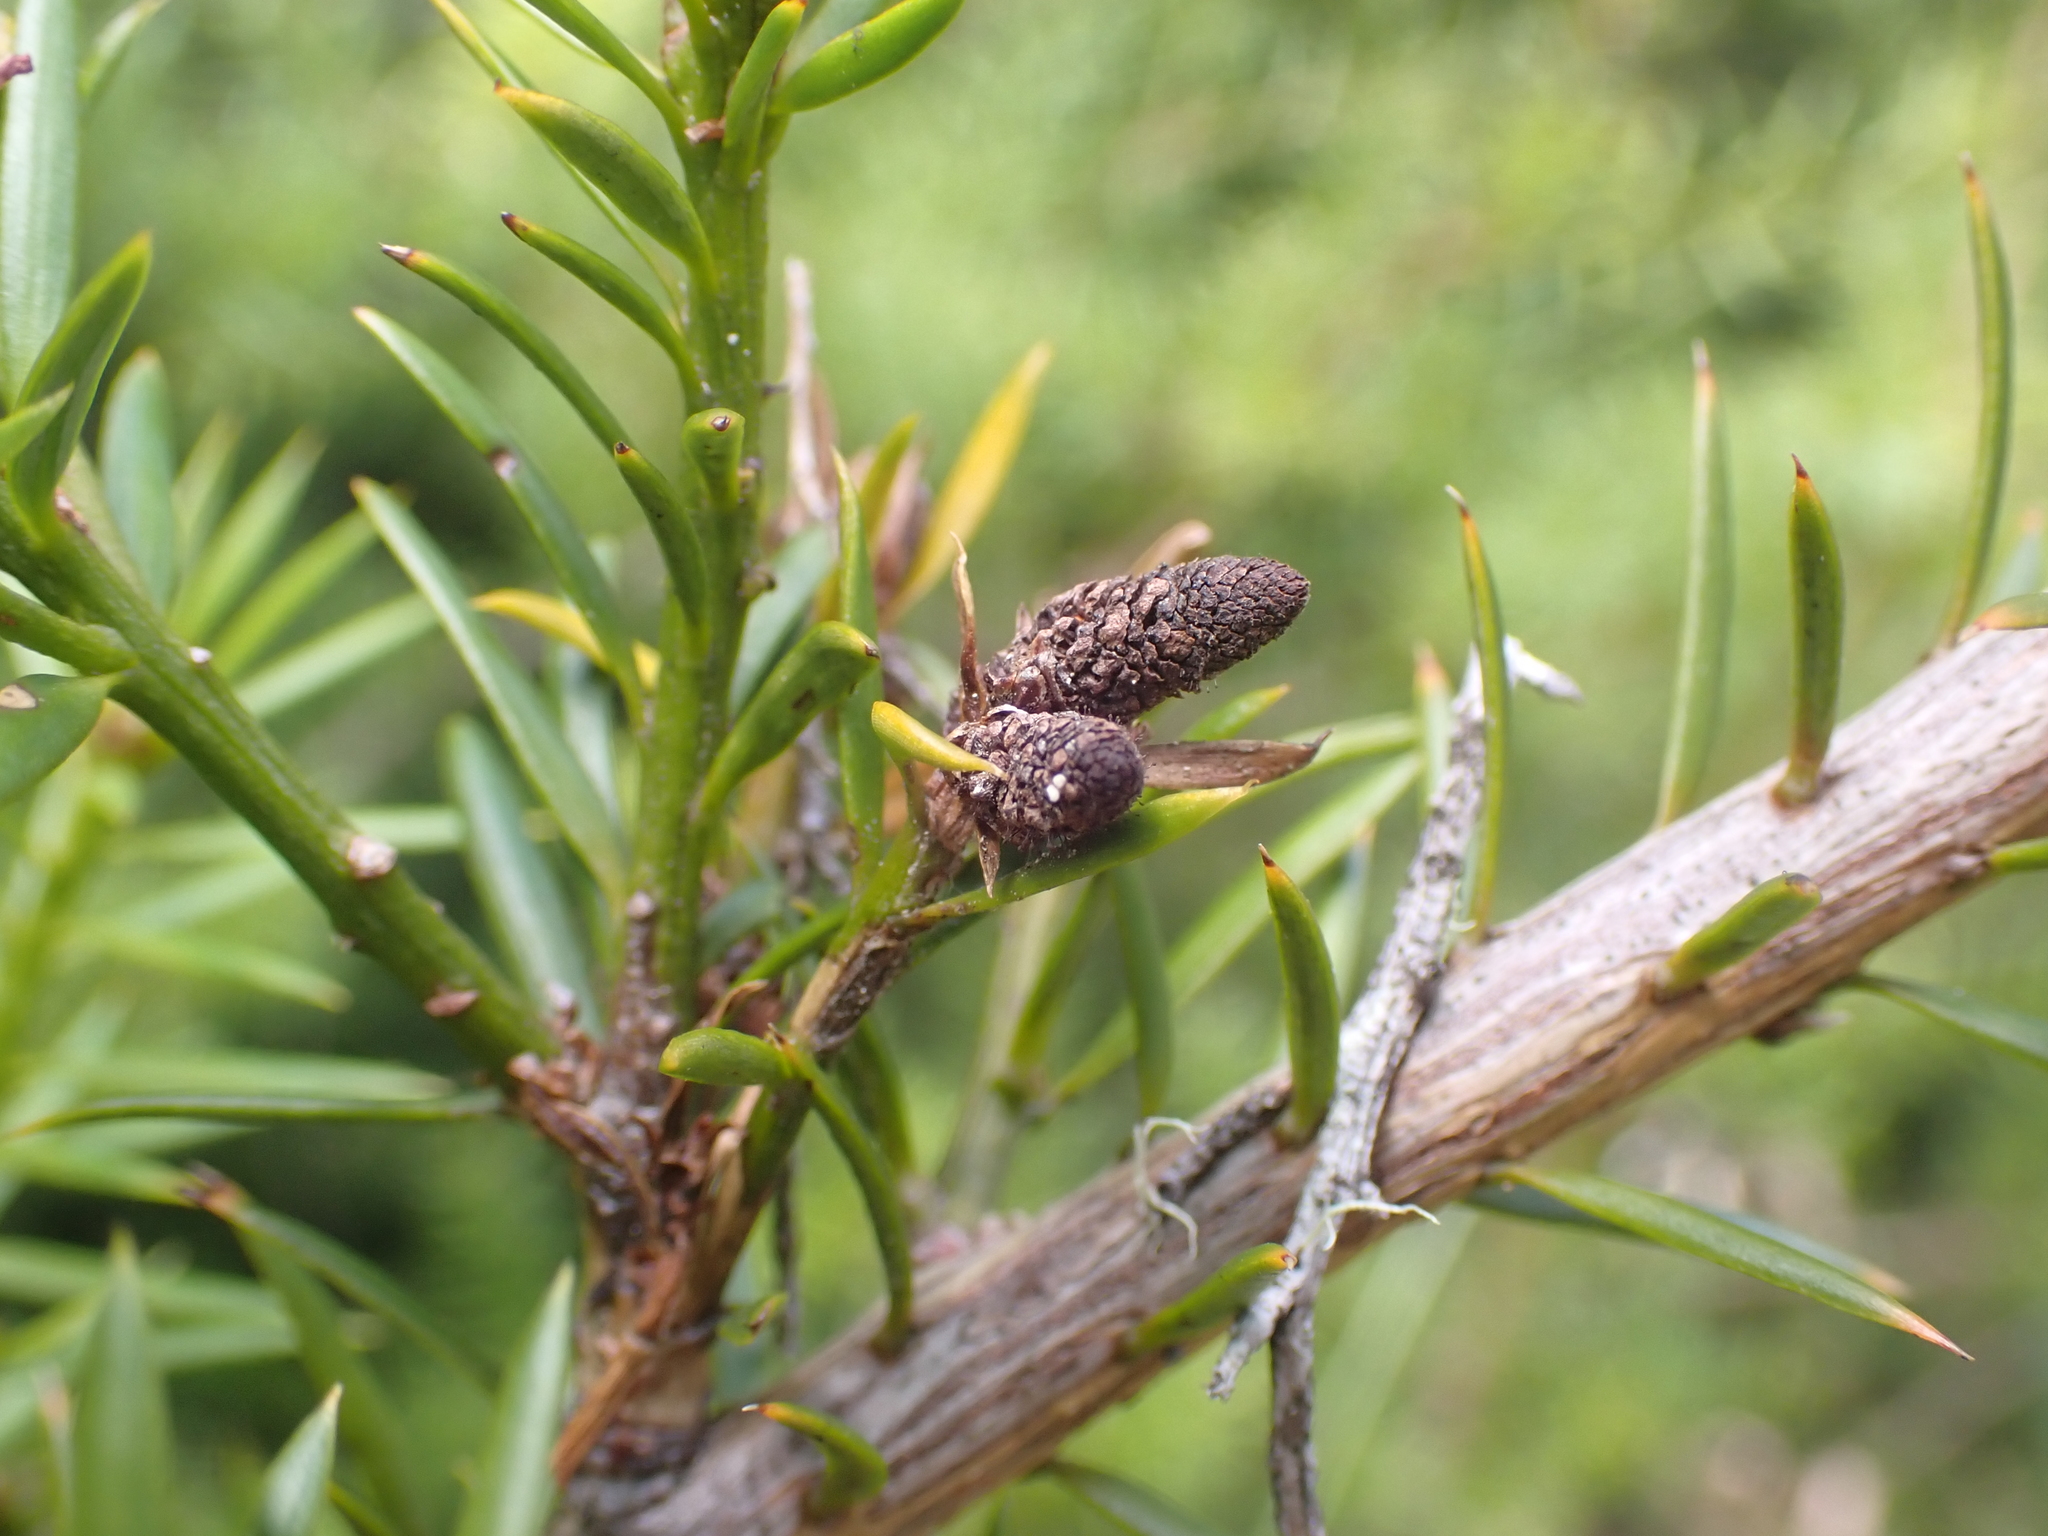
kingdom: Plantae
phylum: Tracheophyta
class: Pinopsida
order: Pinales
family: Podocarpaceae
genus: Podocarpus
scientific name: Podocarpus acutifolius
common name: Needle-leaved totara
